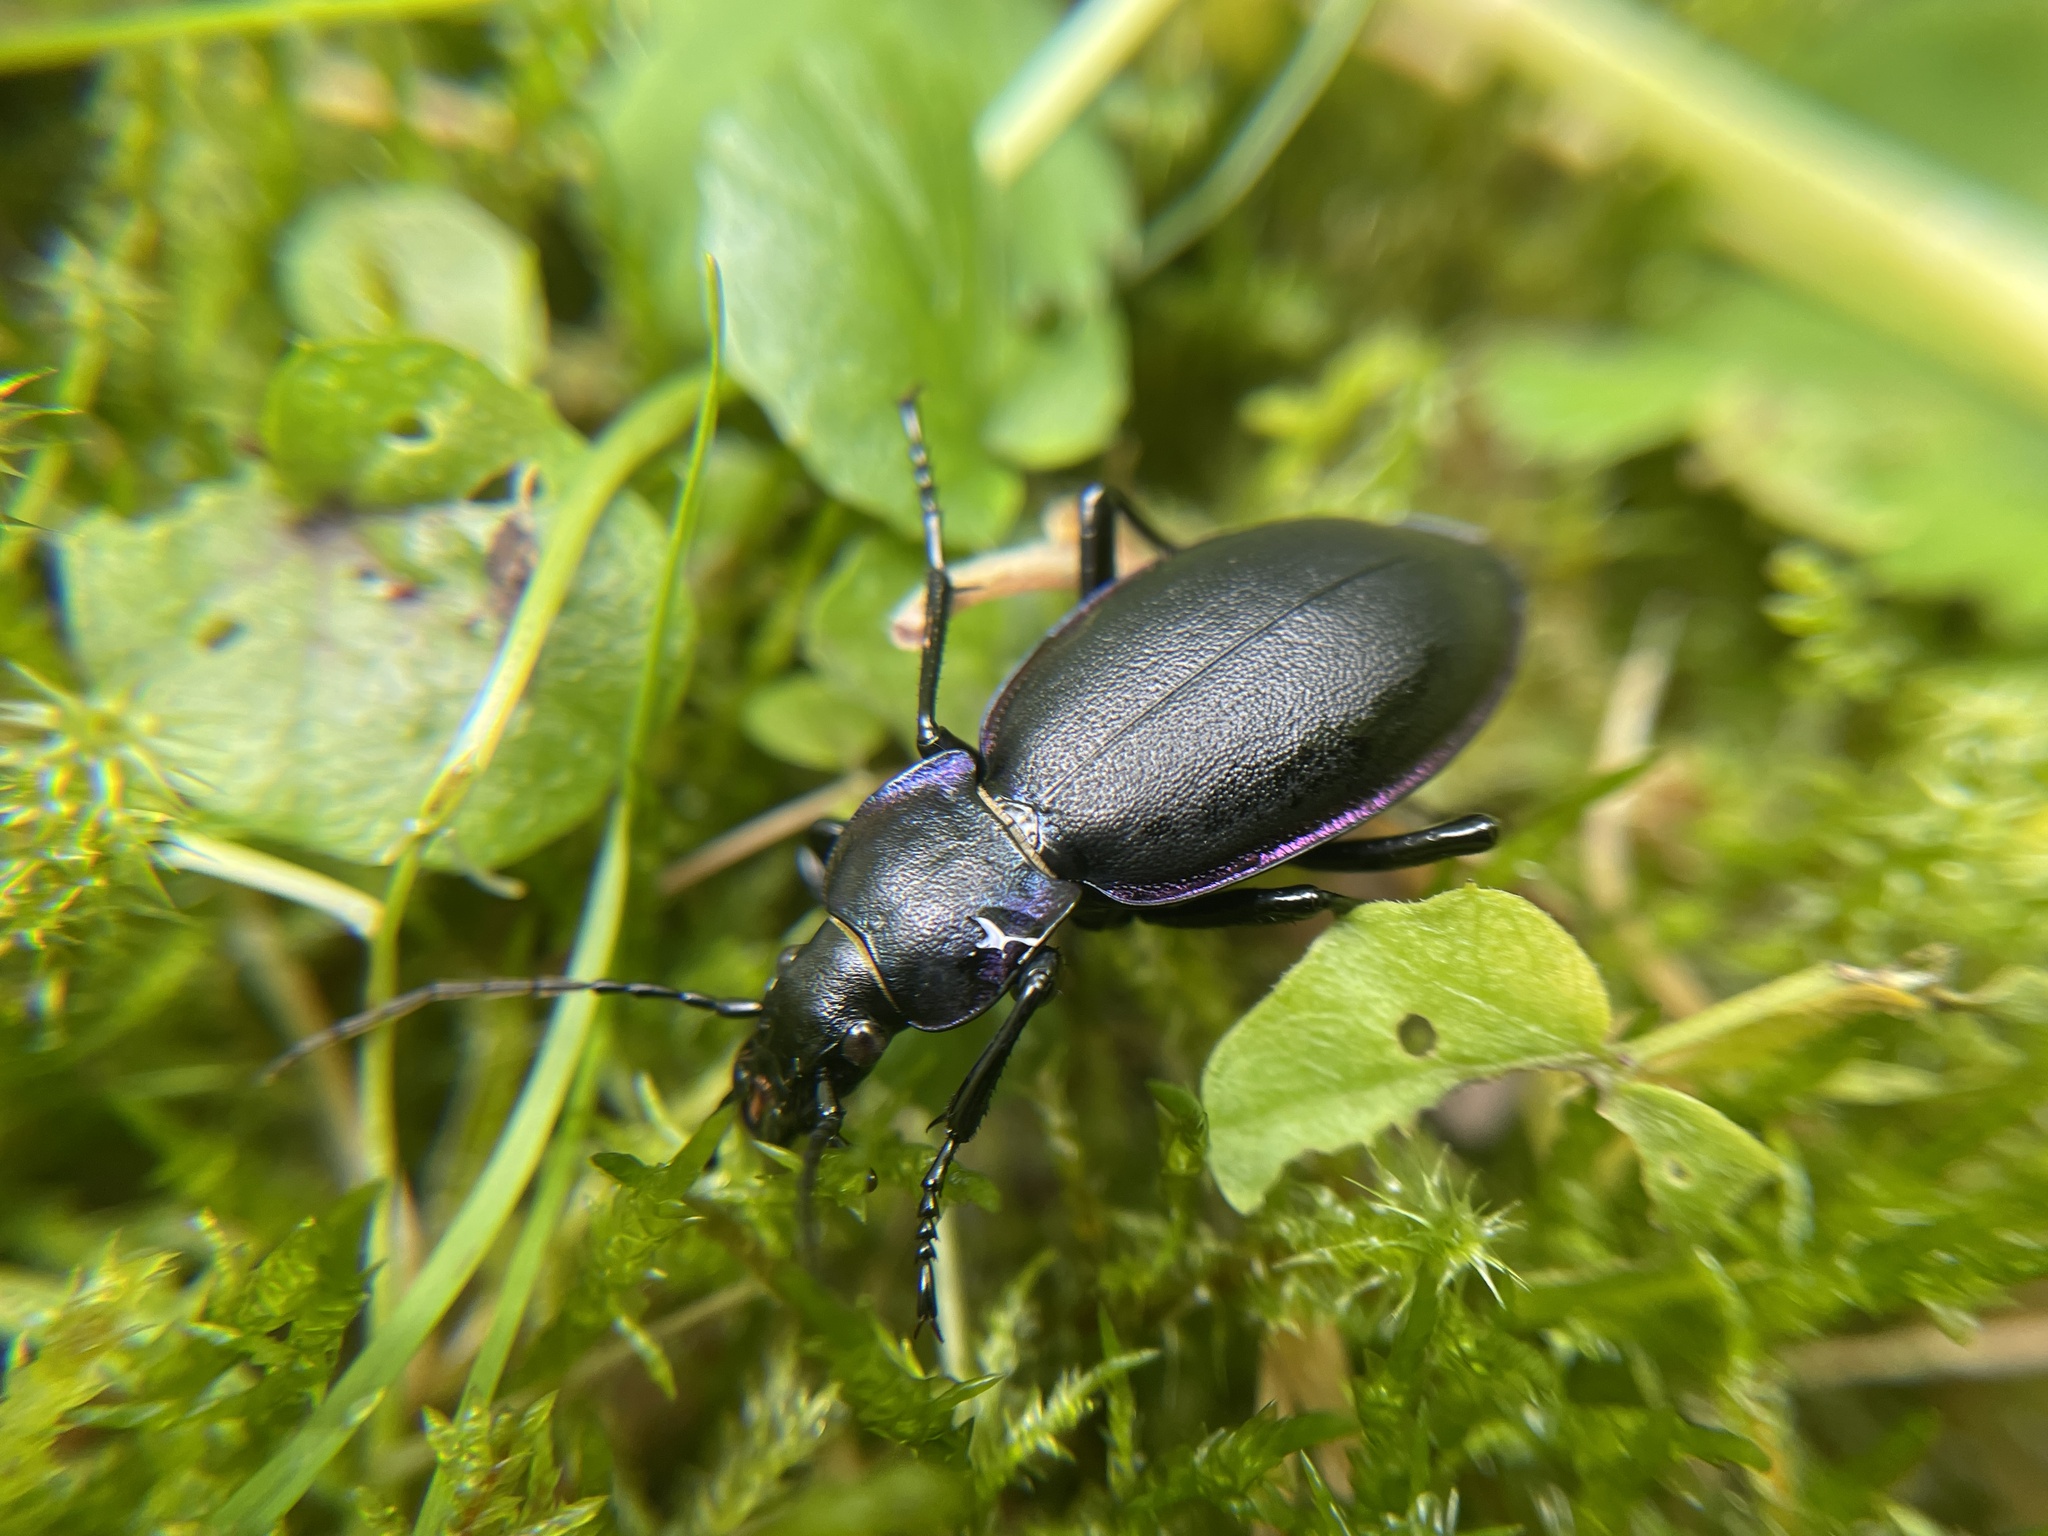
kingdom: Animalia
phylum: Arthropoda
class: Insecta
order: Coleoptera
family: Carabidae
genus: Carabus
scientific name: Carabus violaceus
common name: Violet ground beetle
